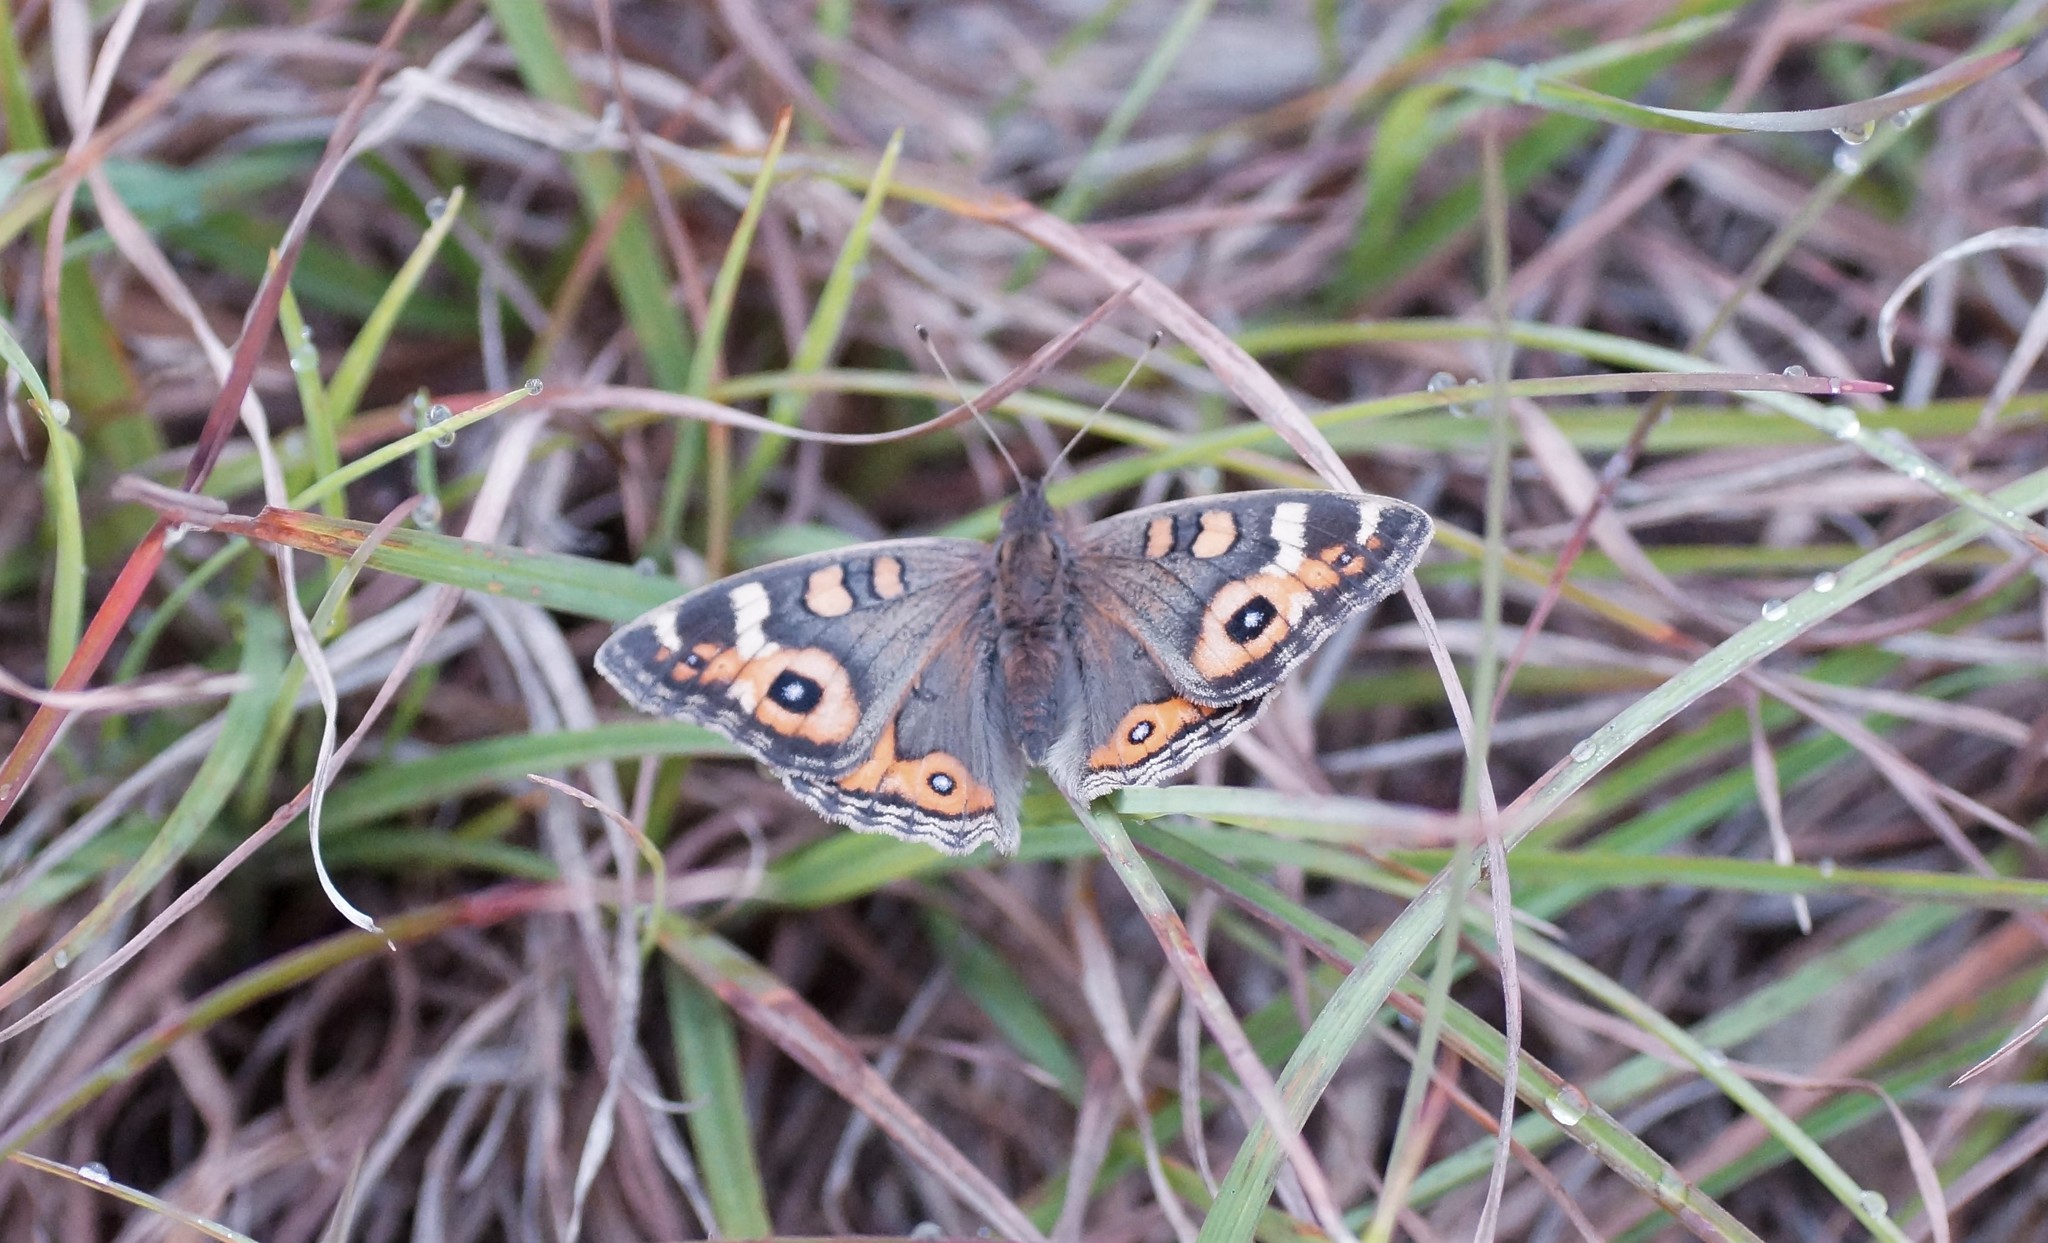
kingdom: Animalia
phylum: Arthropoda
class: Insecta
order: Lepidoptera
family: Nymphalidae
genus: Junonia
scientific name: Junonia villida
